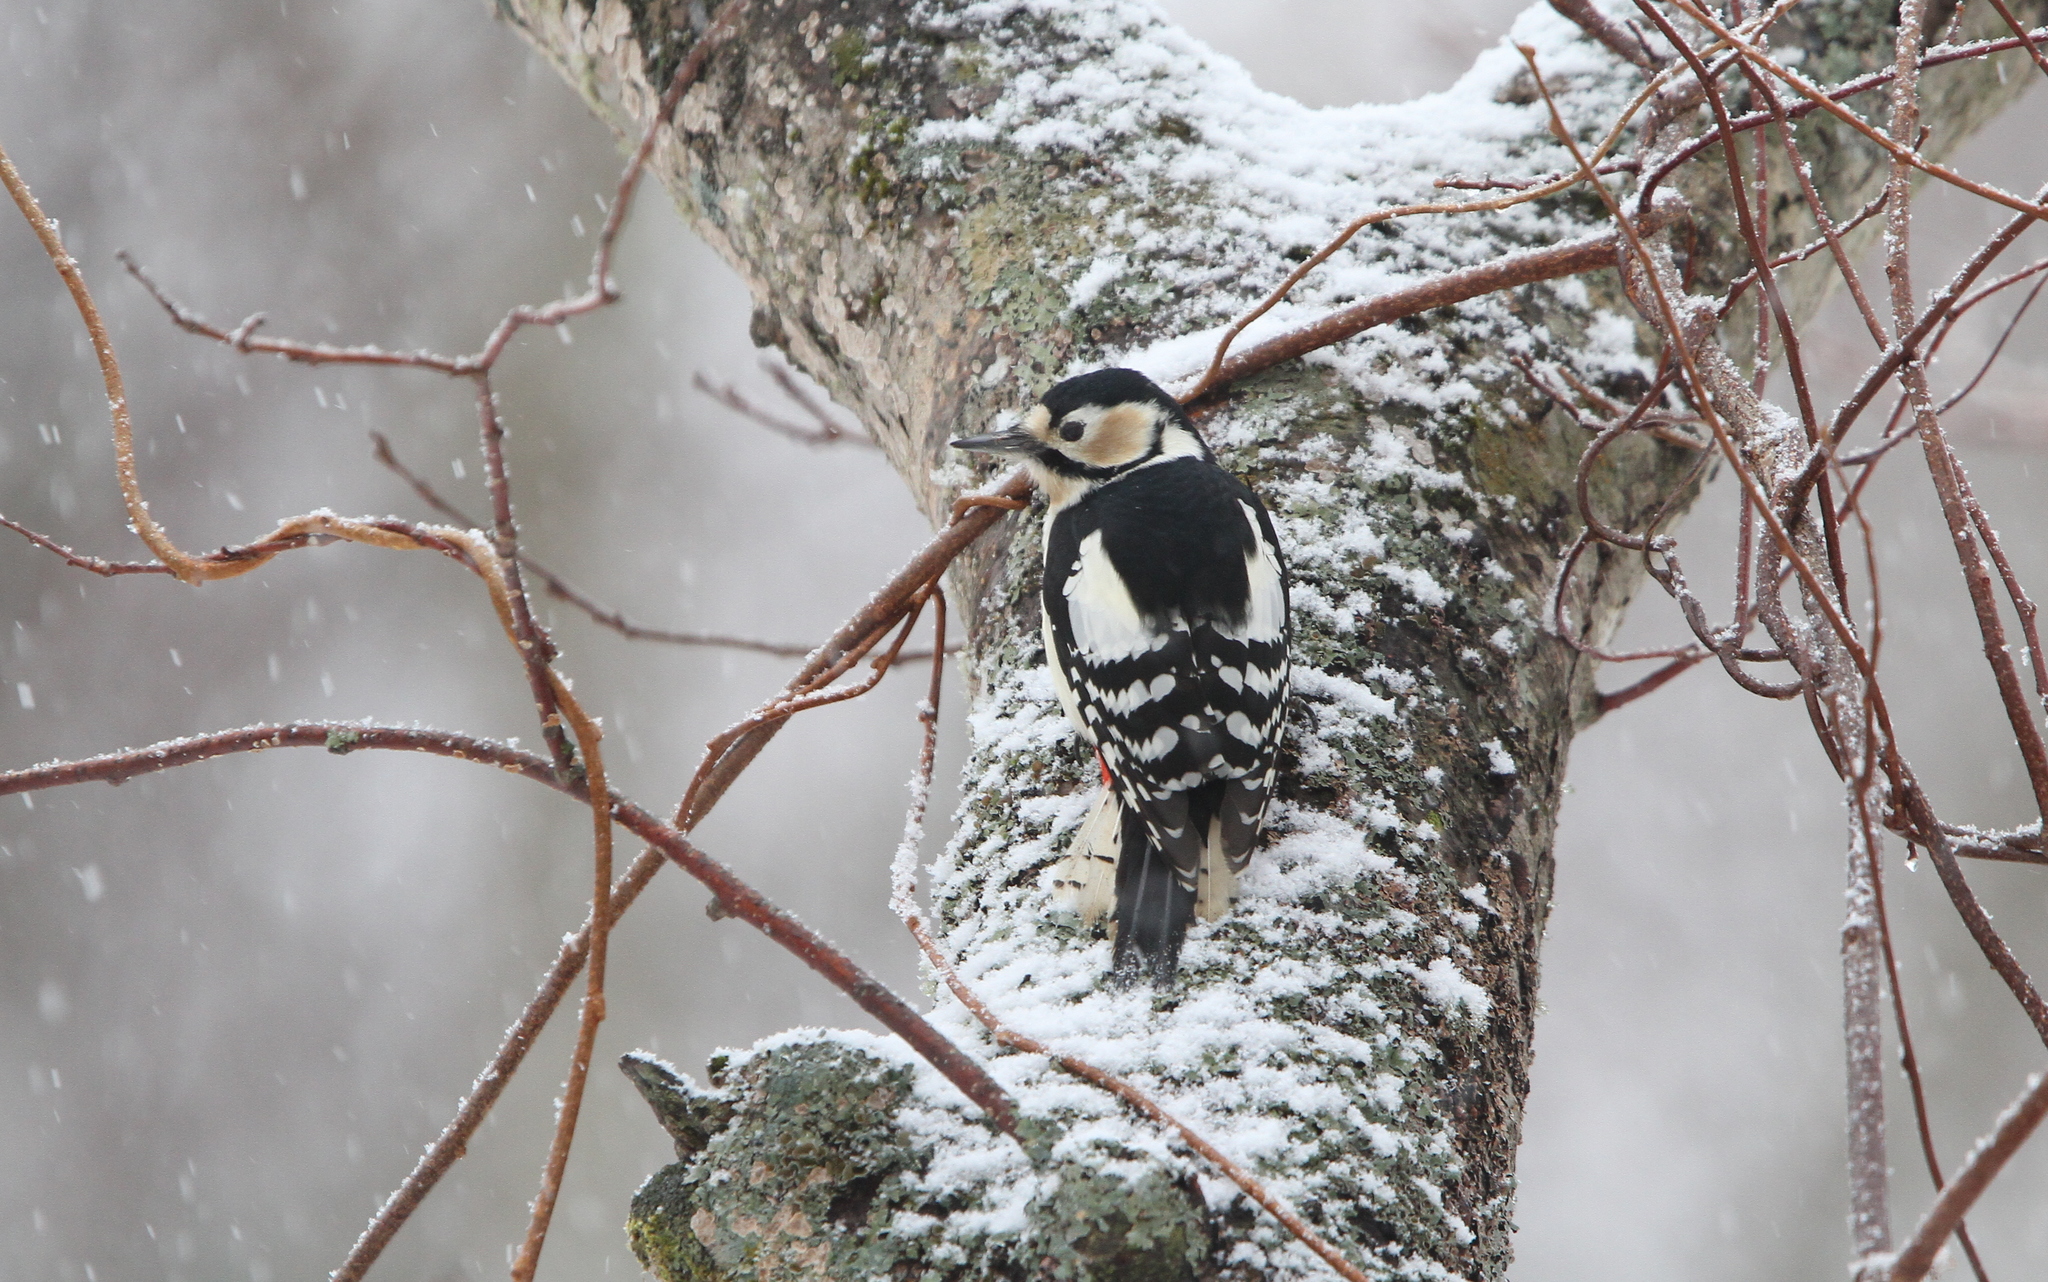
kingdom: Animalia
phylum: Chordata
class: Aves
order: Piciformes
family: Picidae
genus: Dendrocopos
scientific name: Dendrocopos major
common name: Great spotted woodpecker
